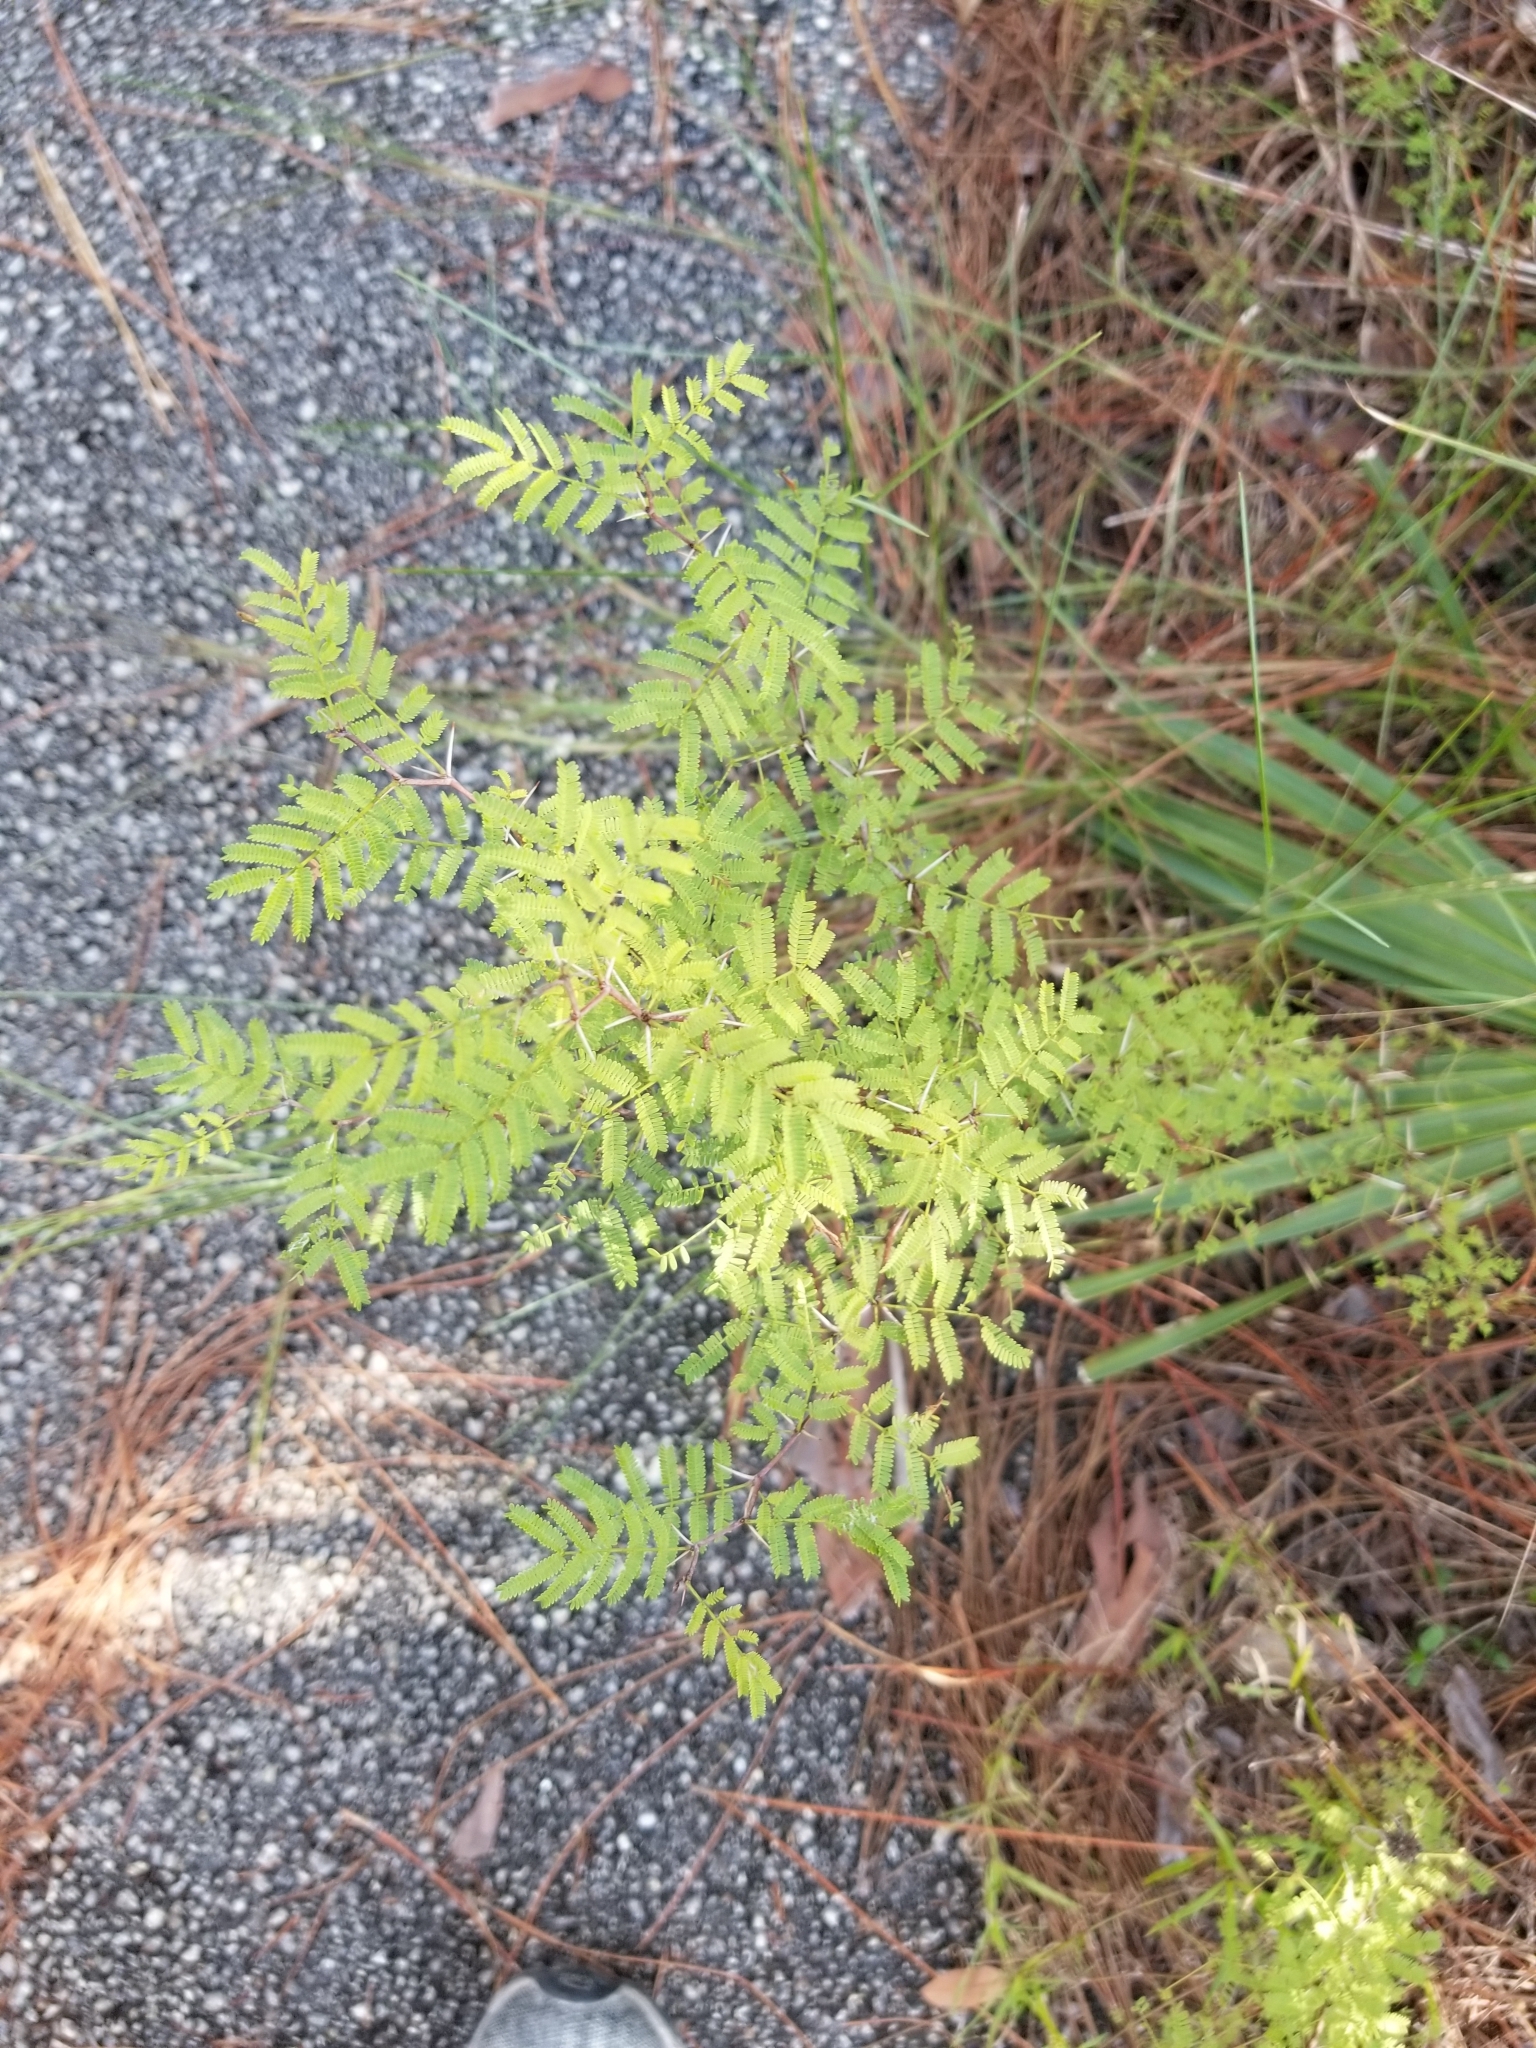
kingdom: Plantae
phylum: Tracheophyta
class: Magnoliopsida
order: Fabales
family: Fabaceae
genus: Vachellia
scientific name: Vachellia farnesiana
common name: Sweet acacia
